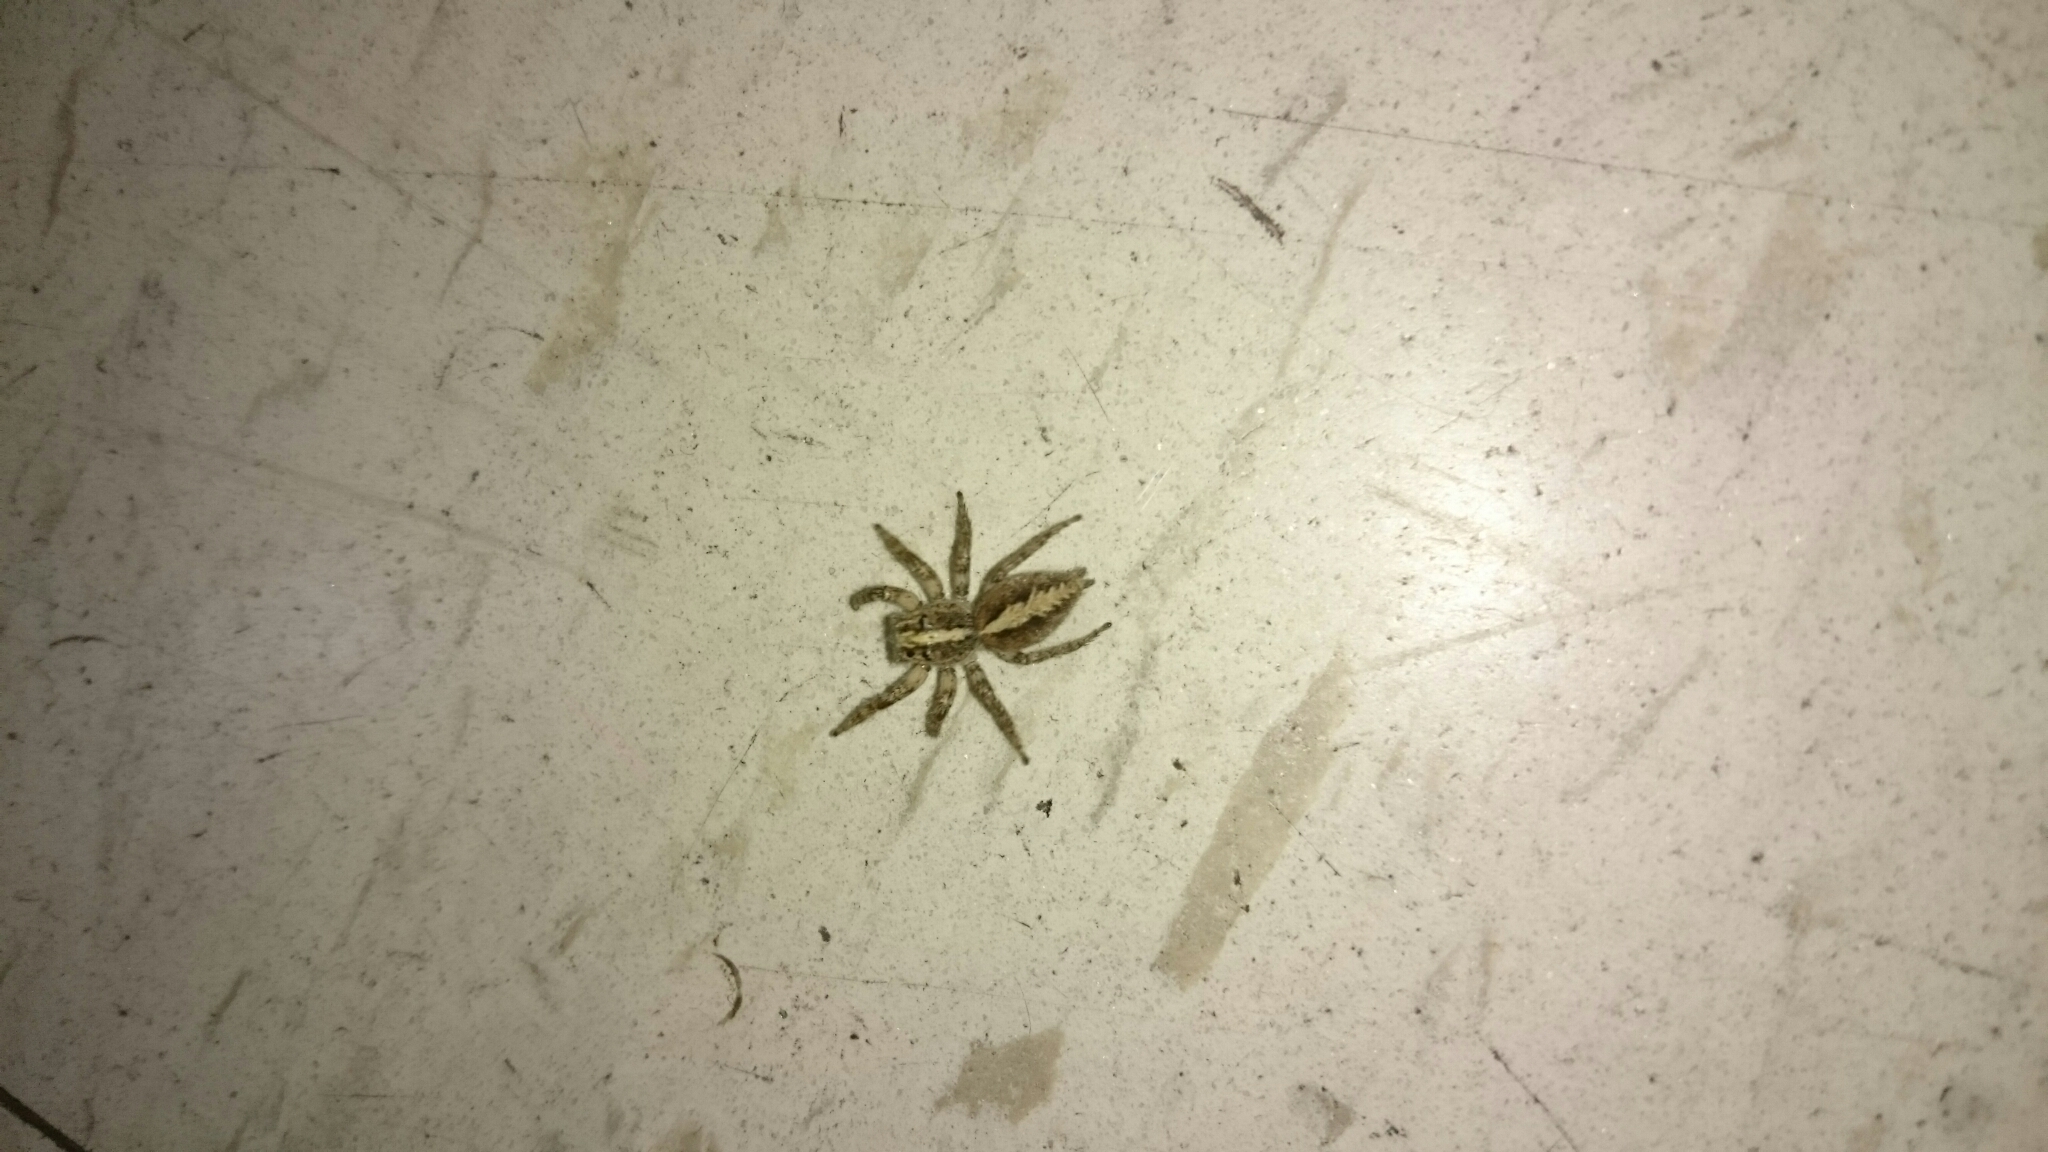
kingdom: Animalia
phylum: Arthropoda
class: Arachnida
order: Araneae
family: Salticidae
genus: Frigga
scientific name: Frigga crocuta
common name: Jumping spiders
